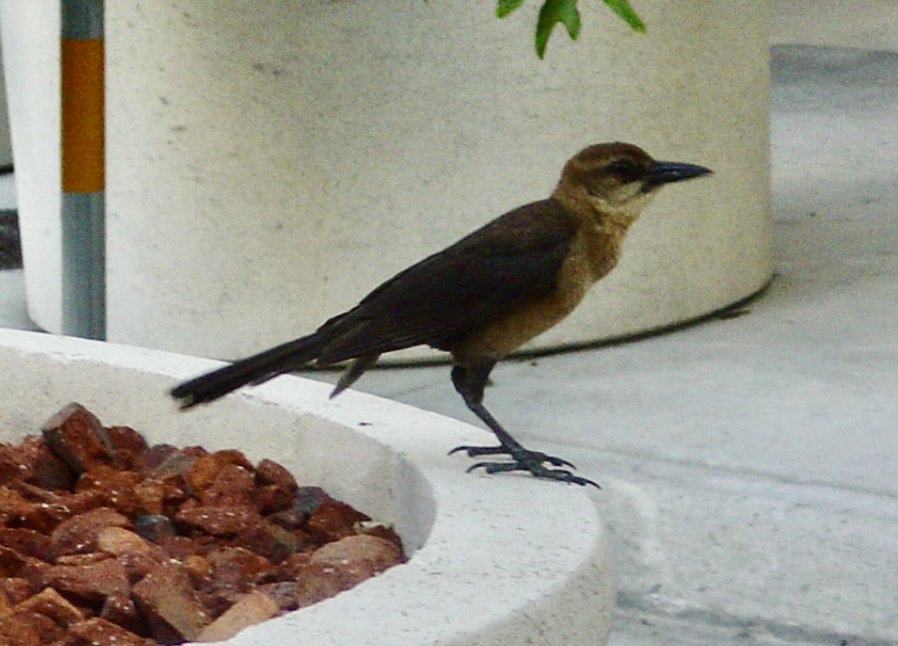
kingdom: Animalia
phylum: Chordata
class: Aves
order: Passeriformes
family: Icteridae
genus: Quiscalus
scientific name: Quiscalus major
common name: Boat-tailed grackle
